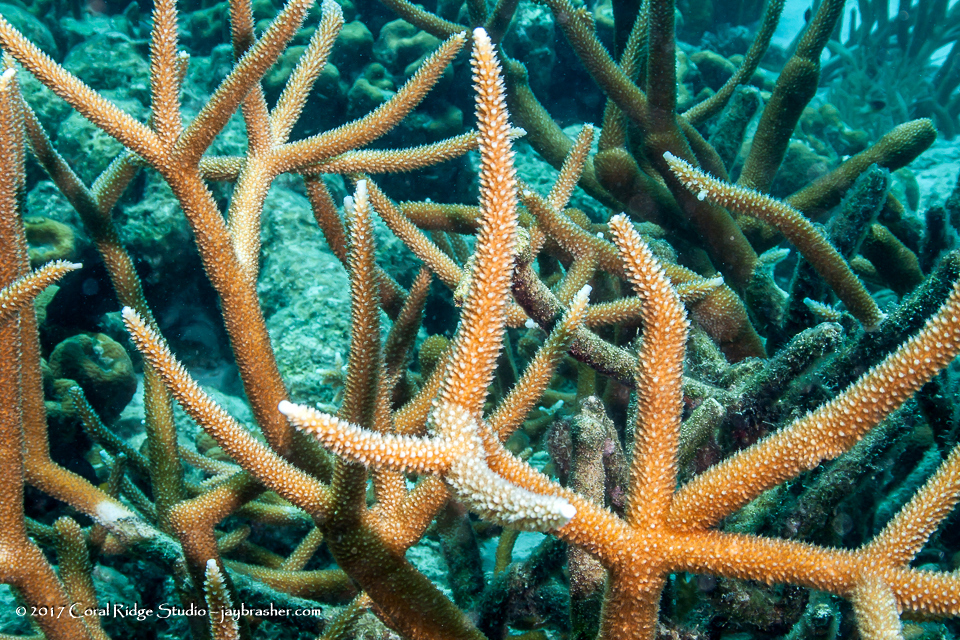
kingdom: Animalia
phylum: Cnidaria
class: Anthozoa
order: Scleractinia
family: Acroporidae
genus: Acropora
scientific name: Acropora cervicornis
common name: Staghorn coral
